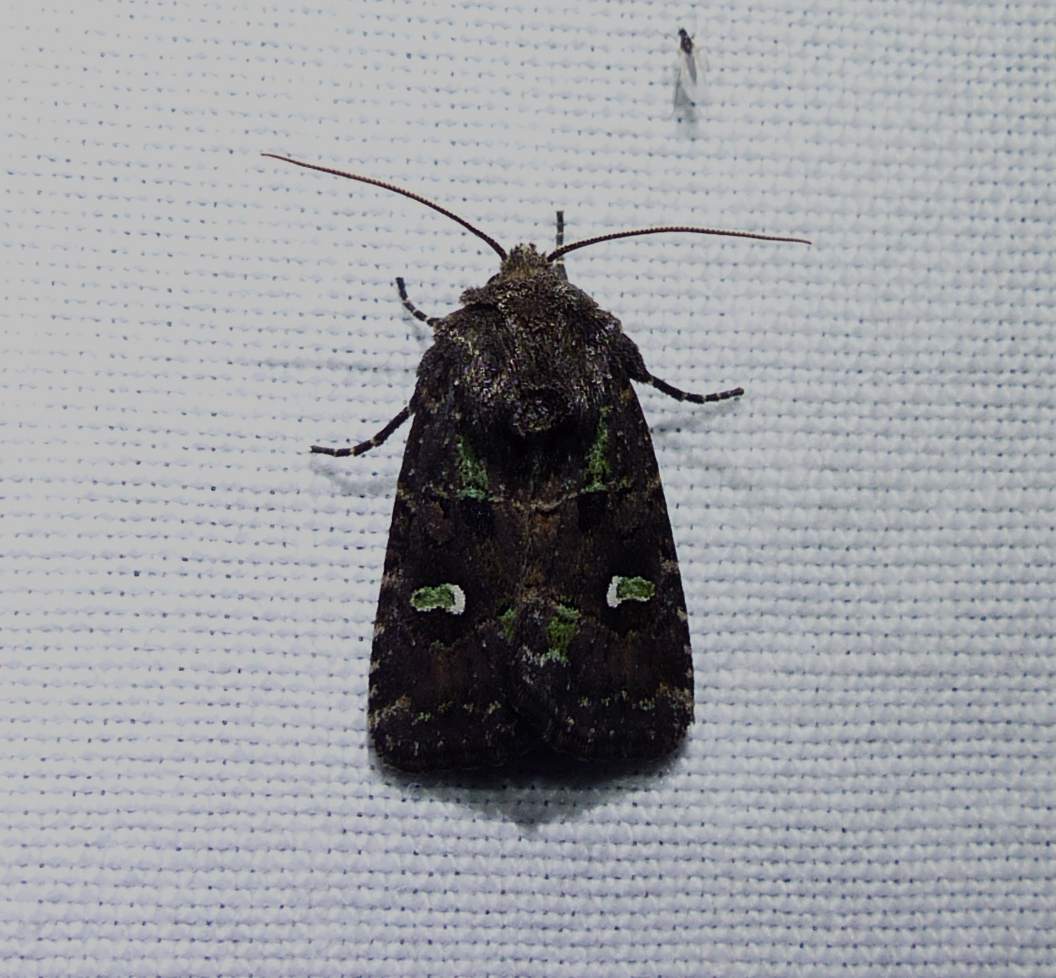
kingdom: Animalia
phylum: Arthropoda
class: Insecta
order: Lepidoptera
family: Noctuidae
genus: Lacinipolia
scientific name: Lacinipolia renigera
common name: Kidney-spotted minor
